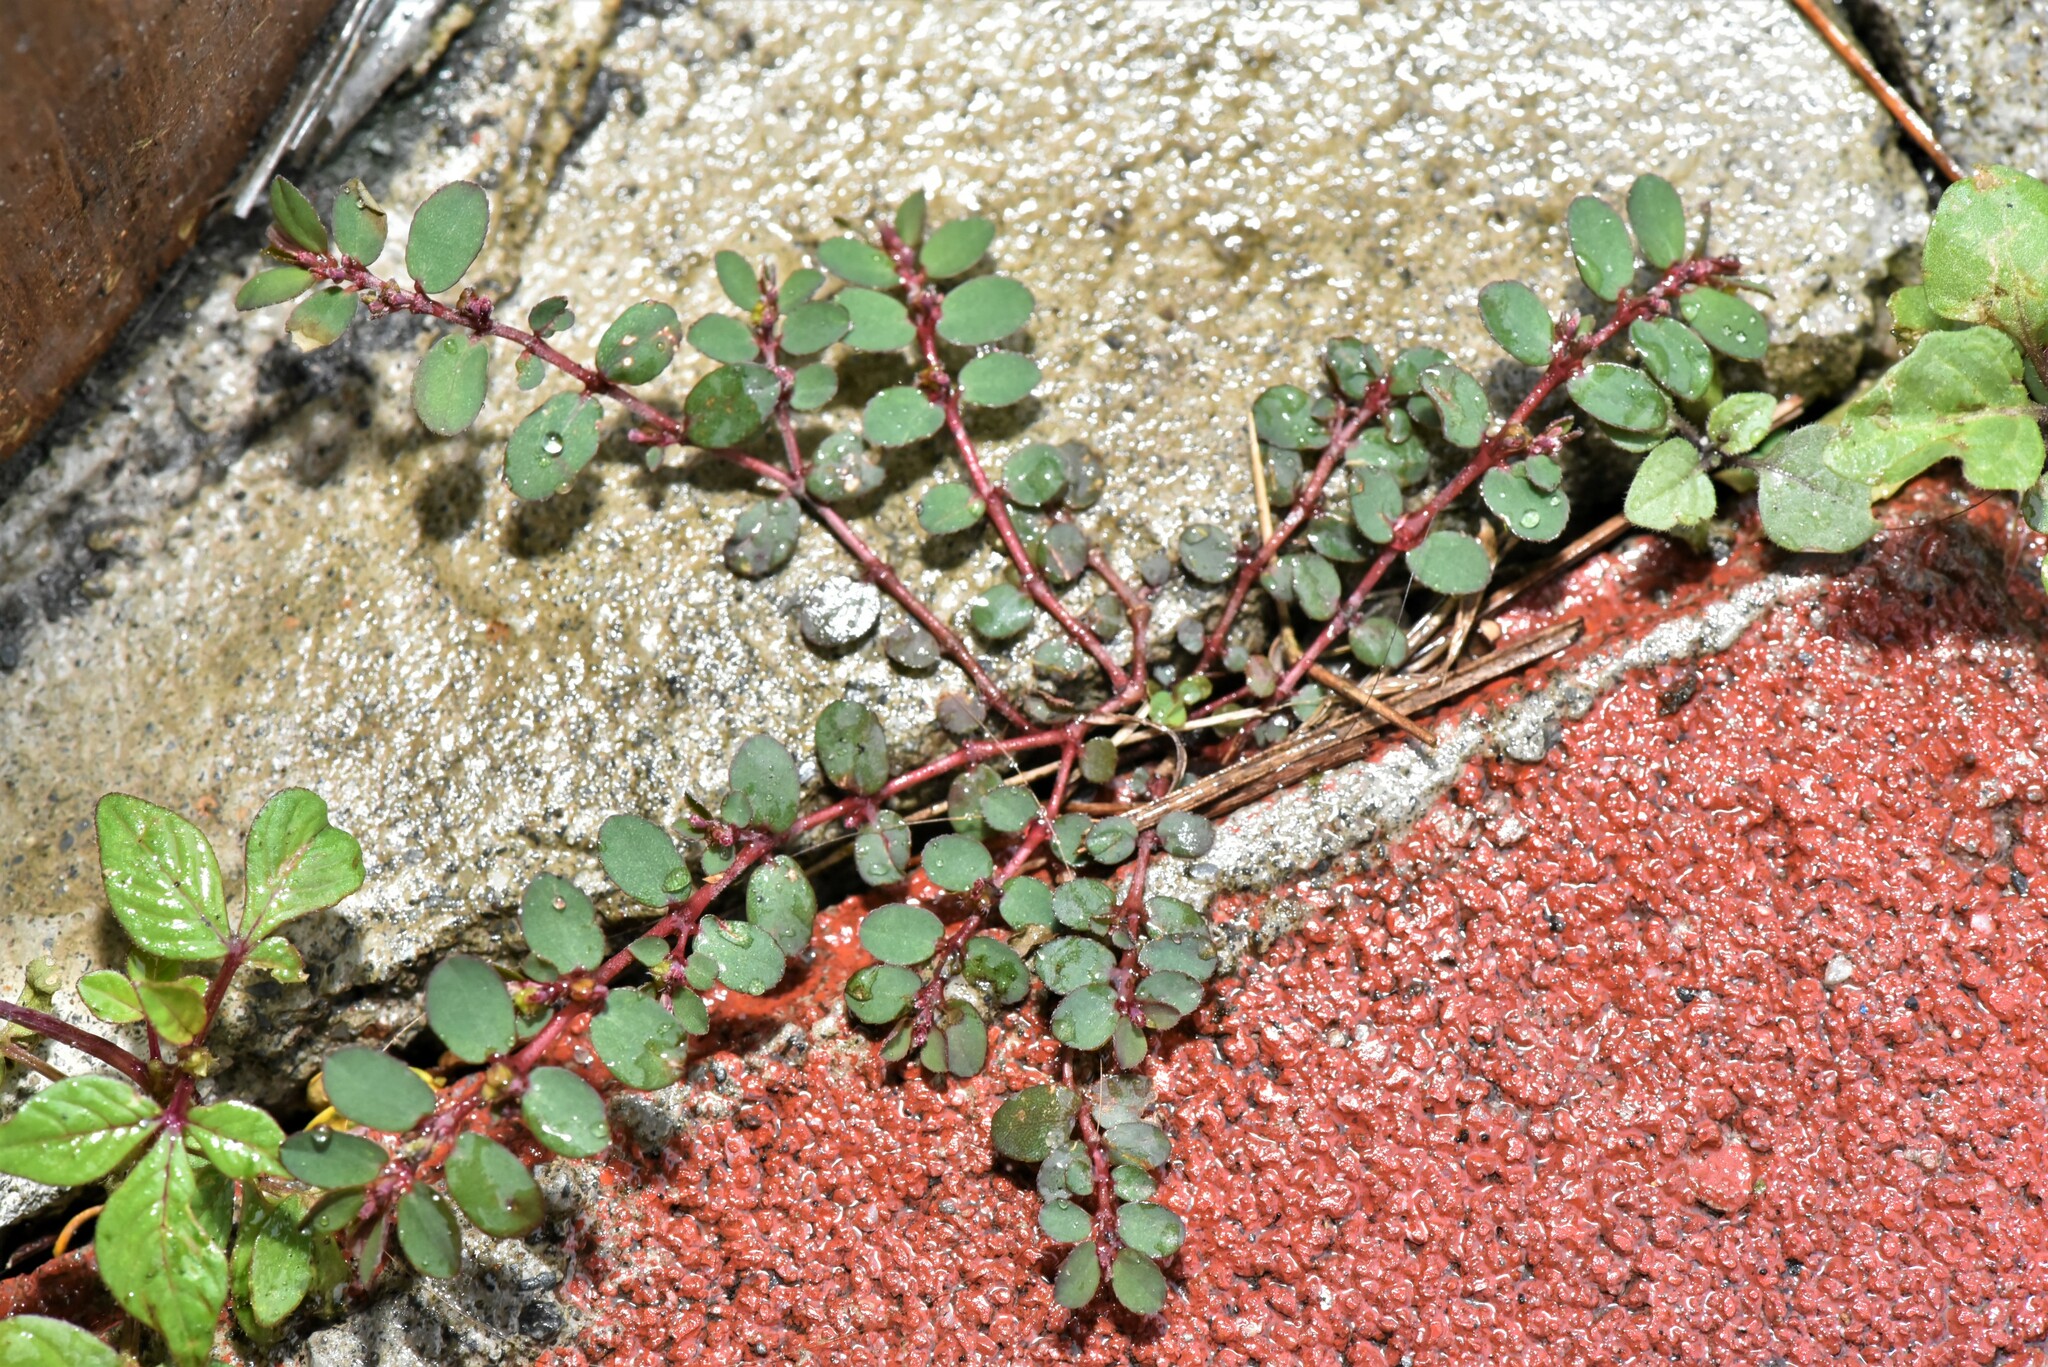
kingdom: Plantae
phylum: Tracheophyta
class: Magnoliopsida
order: Malpighiales
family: Euphorbiaceae
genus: Euphorbia
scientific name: Euphorbia prostrata
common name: Prostrate sandmat
